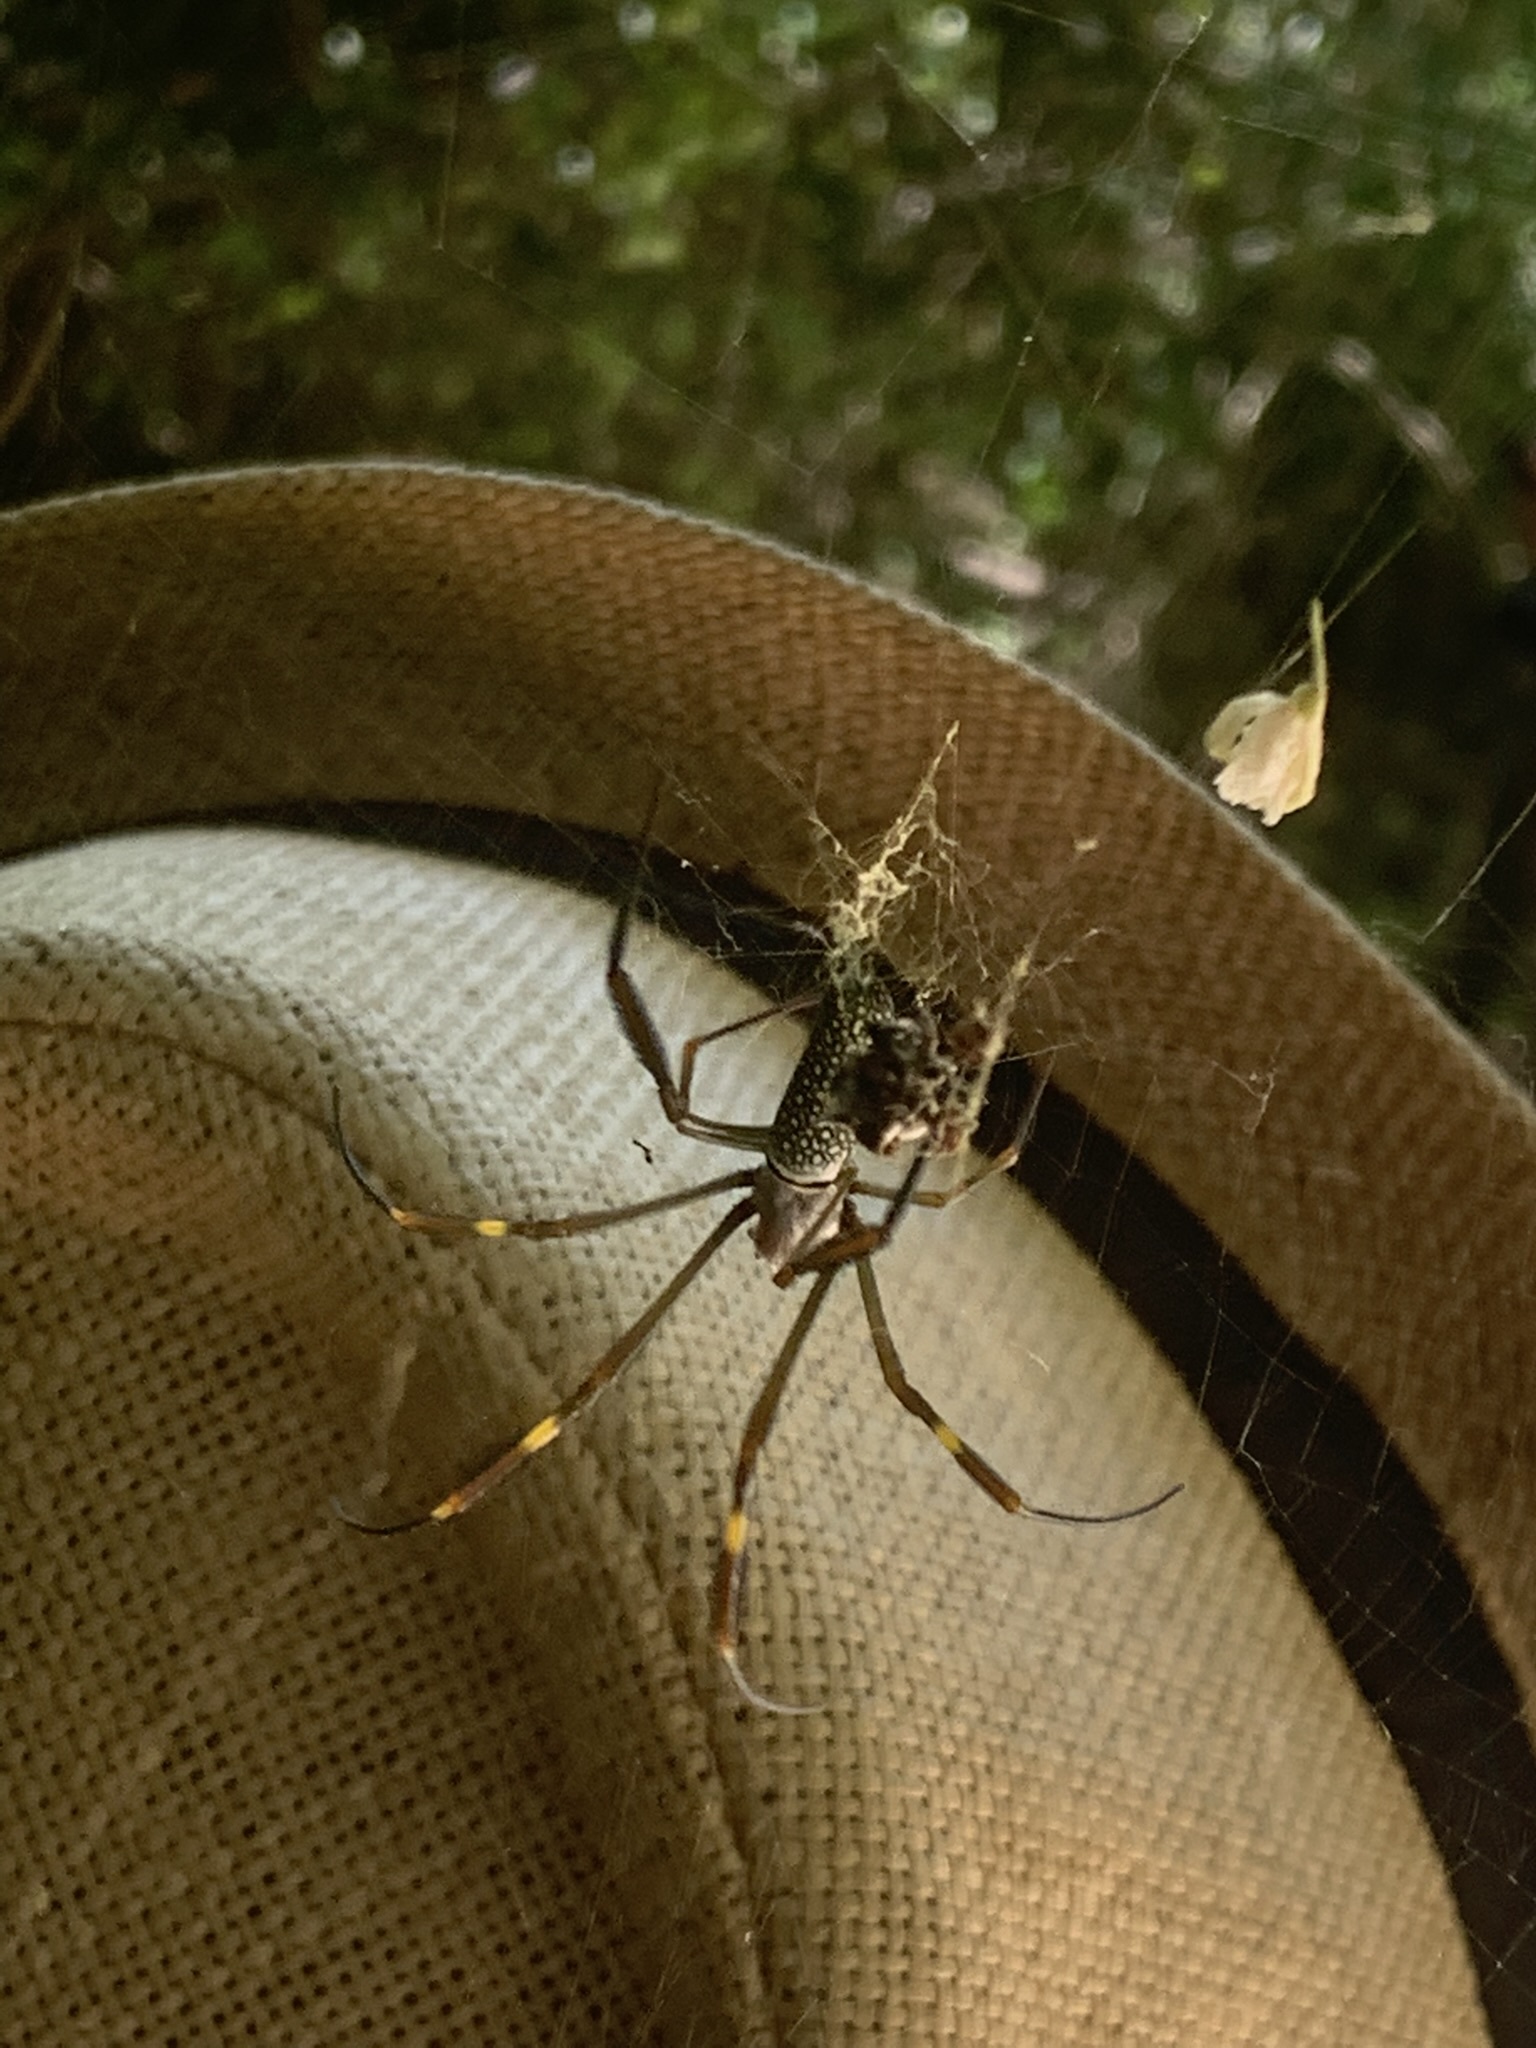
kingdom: Animalia
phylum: Arthropoda
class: Arachnida
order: Araneae
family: Araneidae
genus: Trichonephila
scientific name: Trichonephila clavipes
